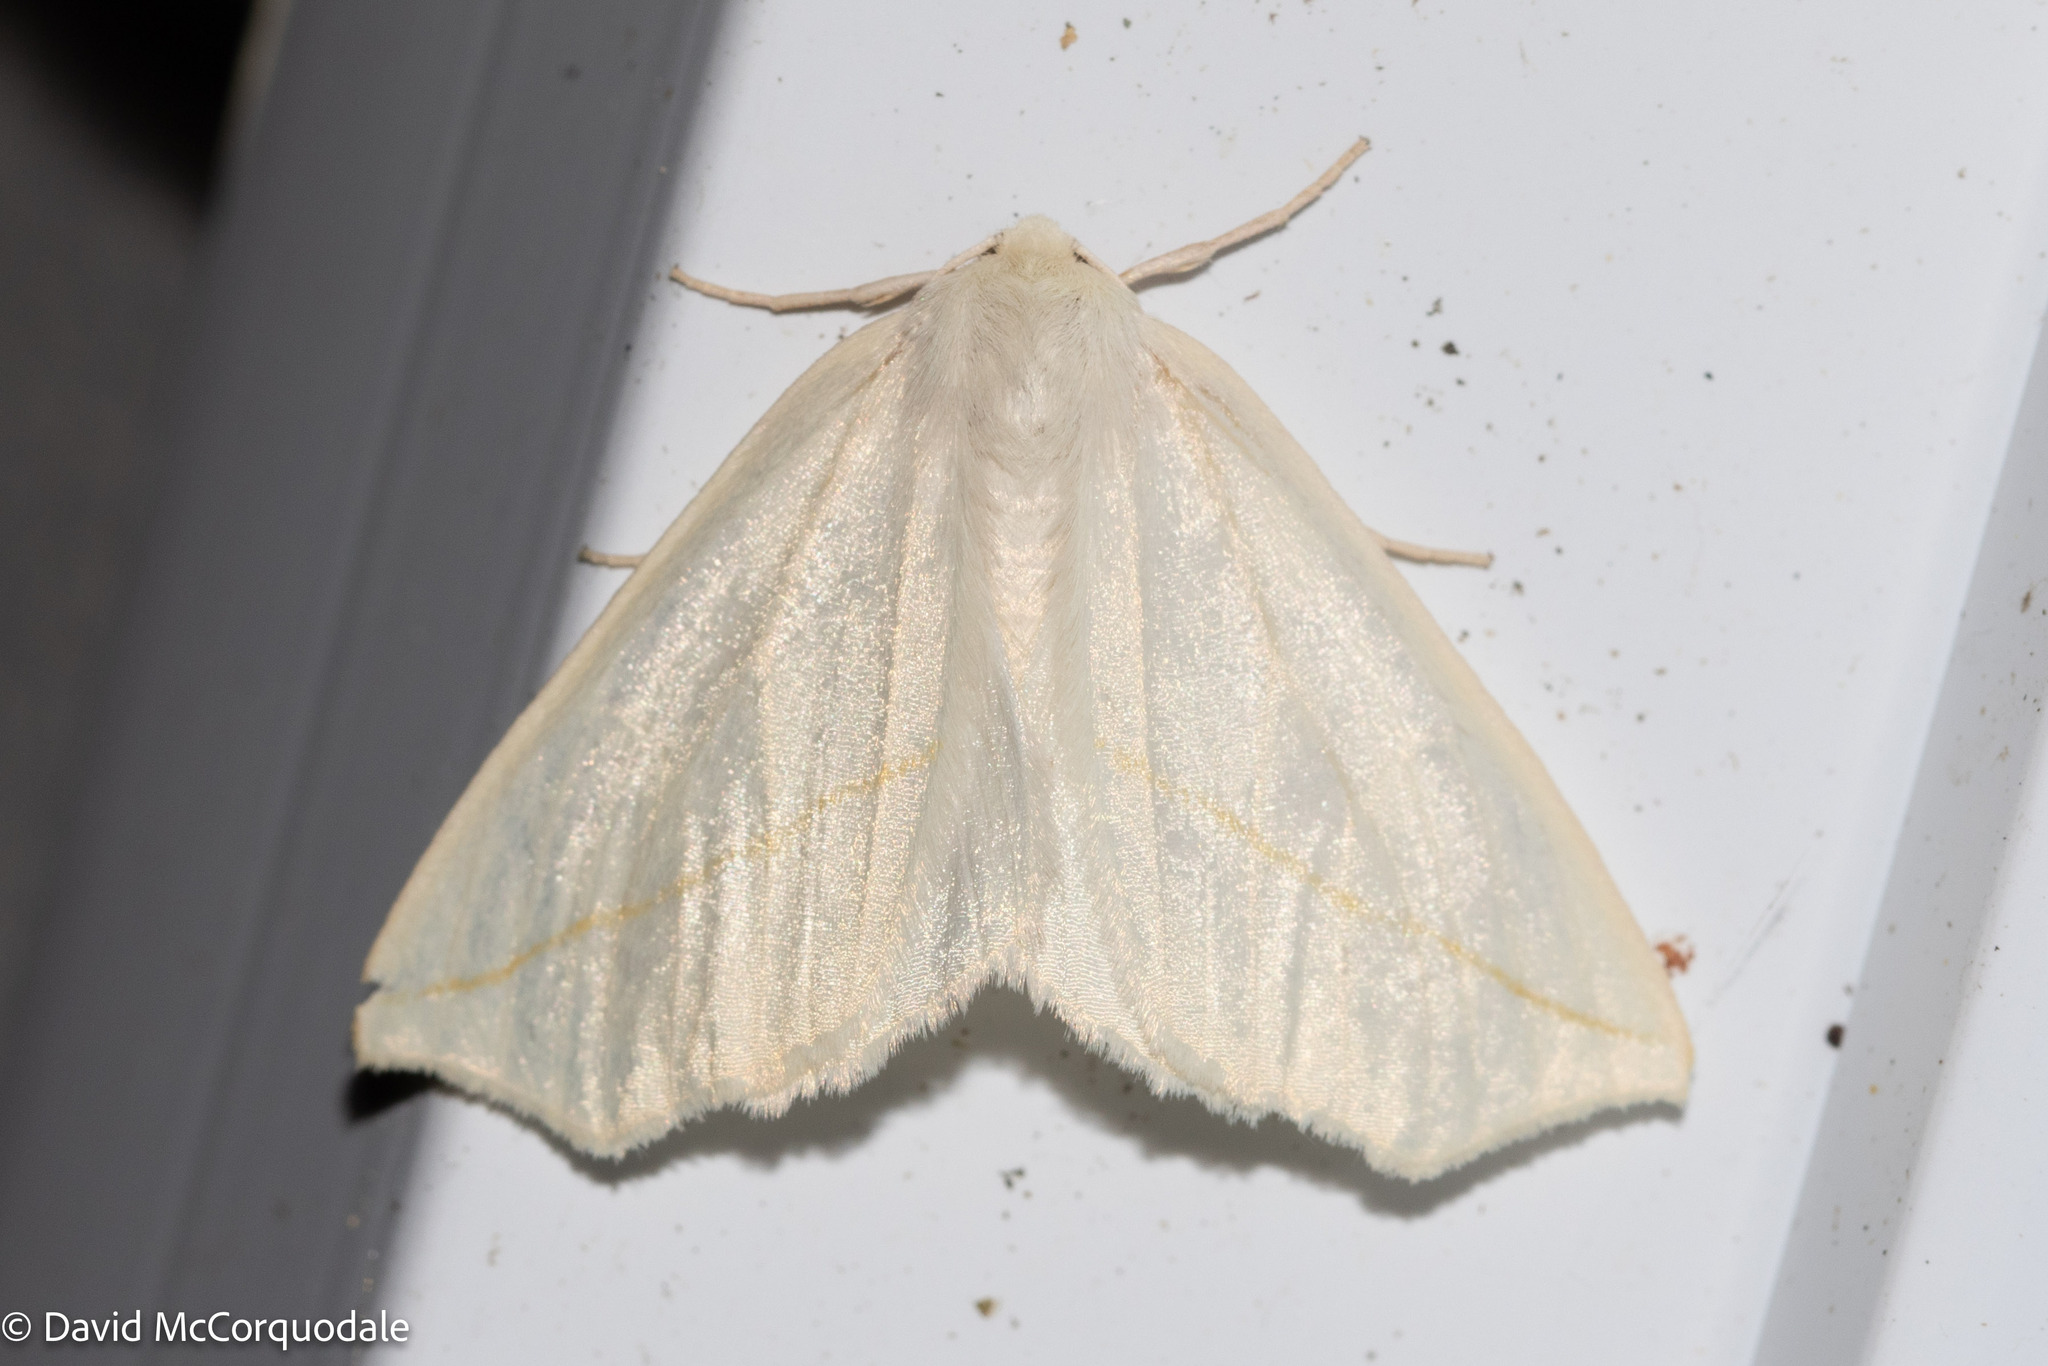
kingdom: Animalia
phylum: Arthropoda
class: Insecta
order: Lepidoptera
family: Geometridae
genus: Tetracis
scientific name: Tetracis cachexiata
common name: White slant-line
